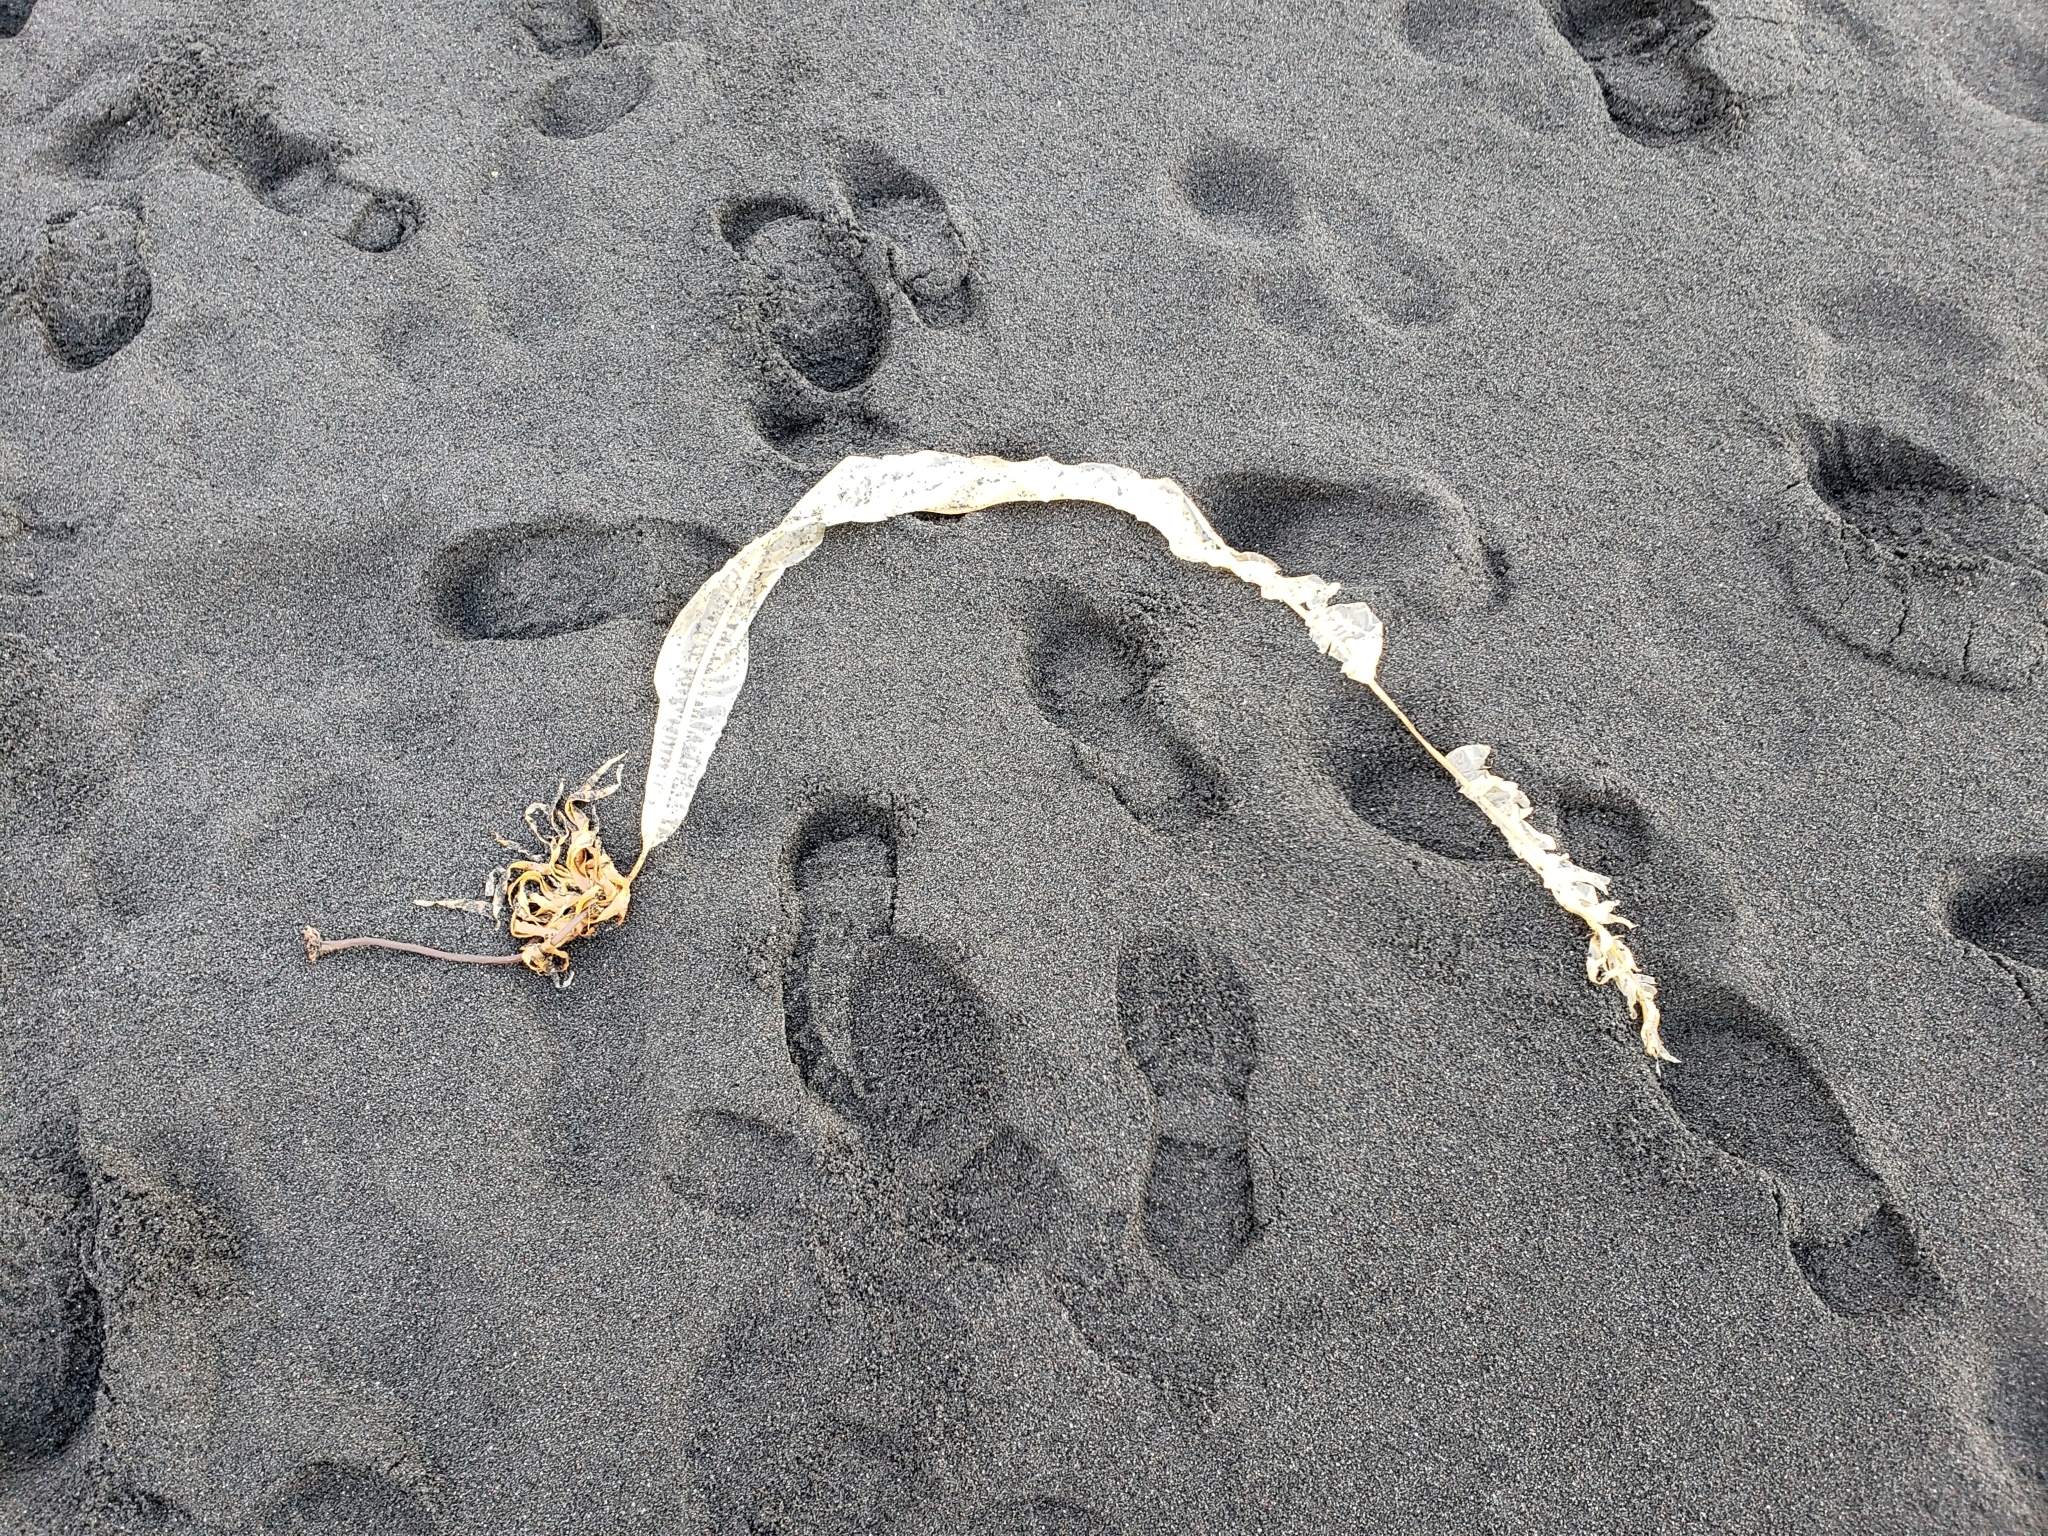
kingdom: Chromista
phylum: Ochrophyta
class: Phaeophyceae
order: Laminariales
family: Alariaceae
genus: Alaria
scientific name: Alaria esculenta
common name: Dabberlocks
